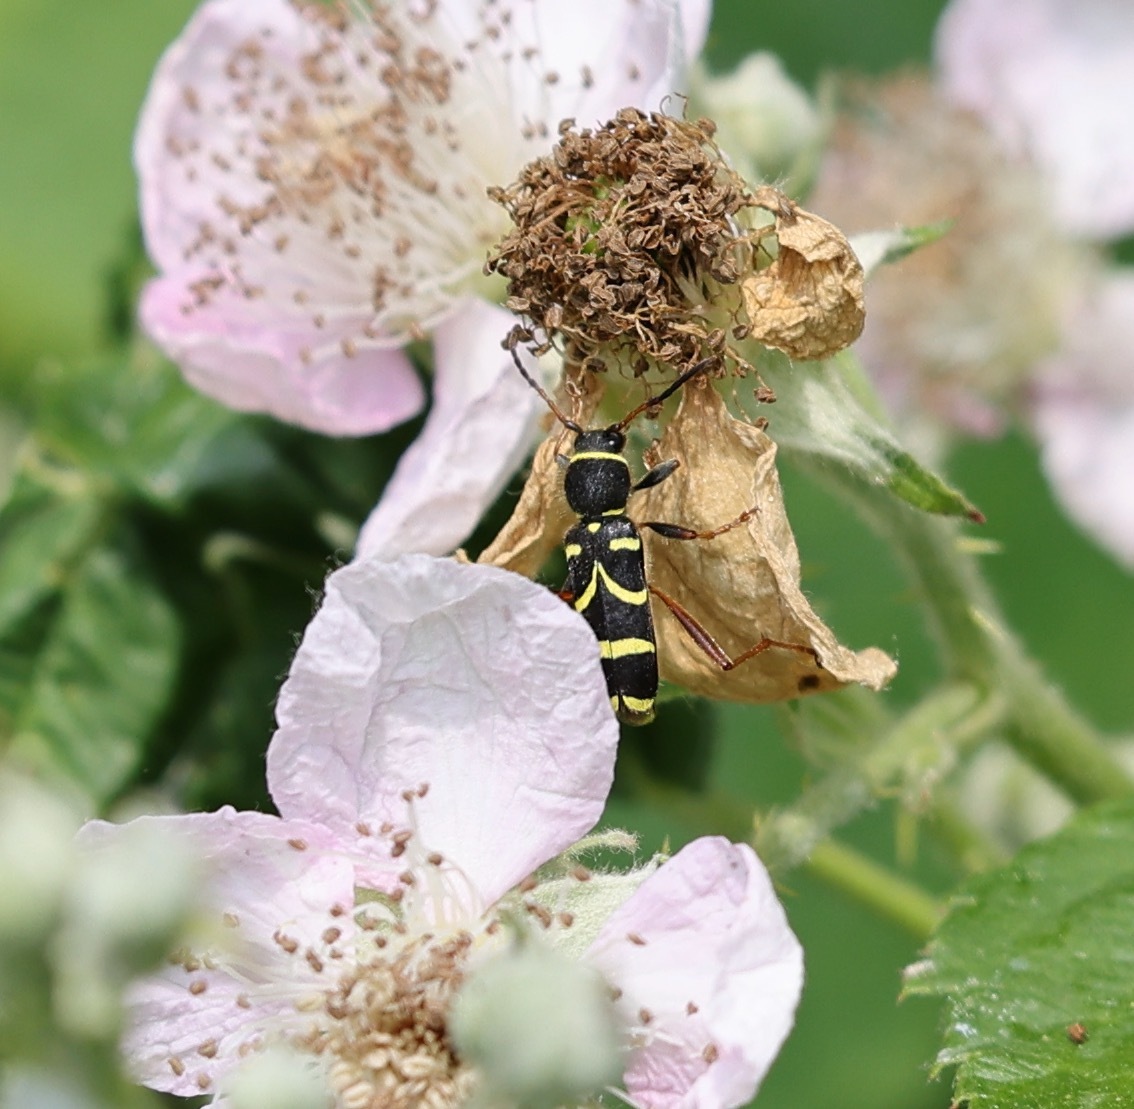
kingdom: Animalia
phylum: Arthropoda
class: Insecta
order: Coleoptera
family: Cerambycidae
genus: Clytus
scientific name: Clytus arietis
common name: Wasp beetle
